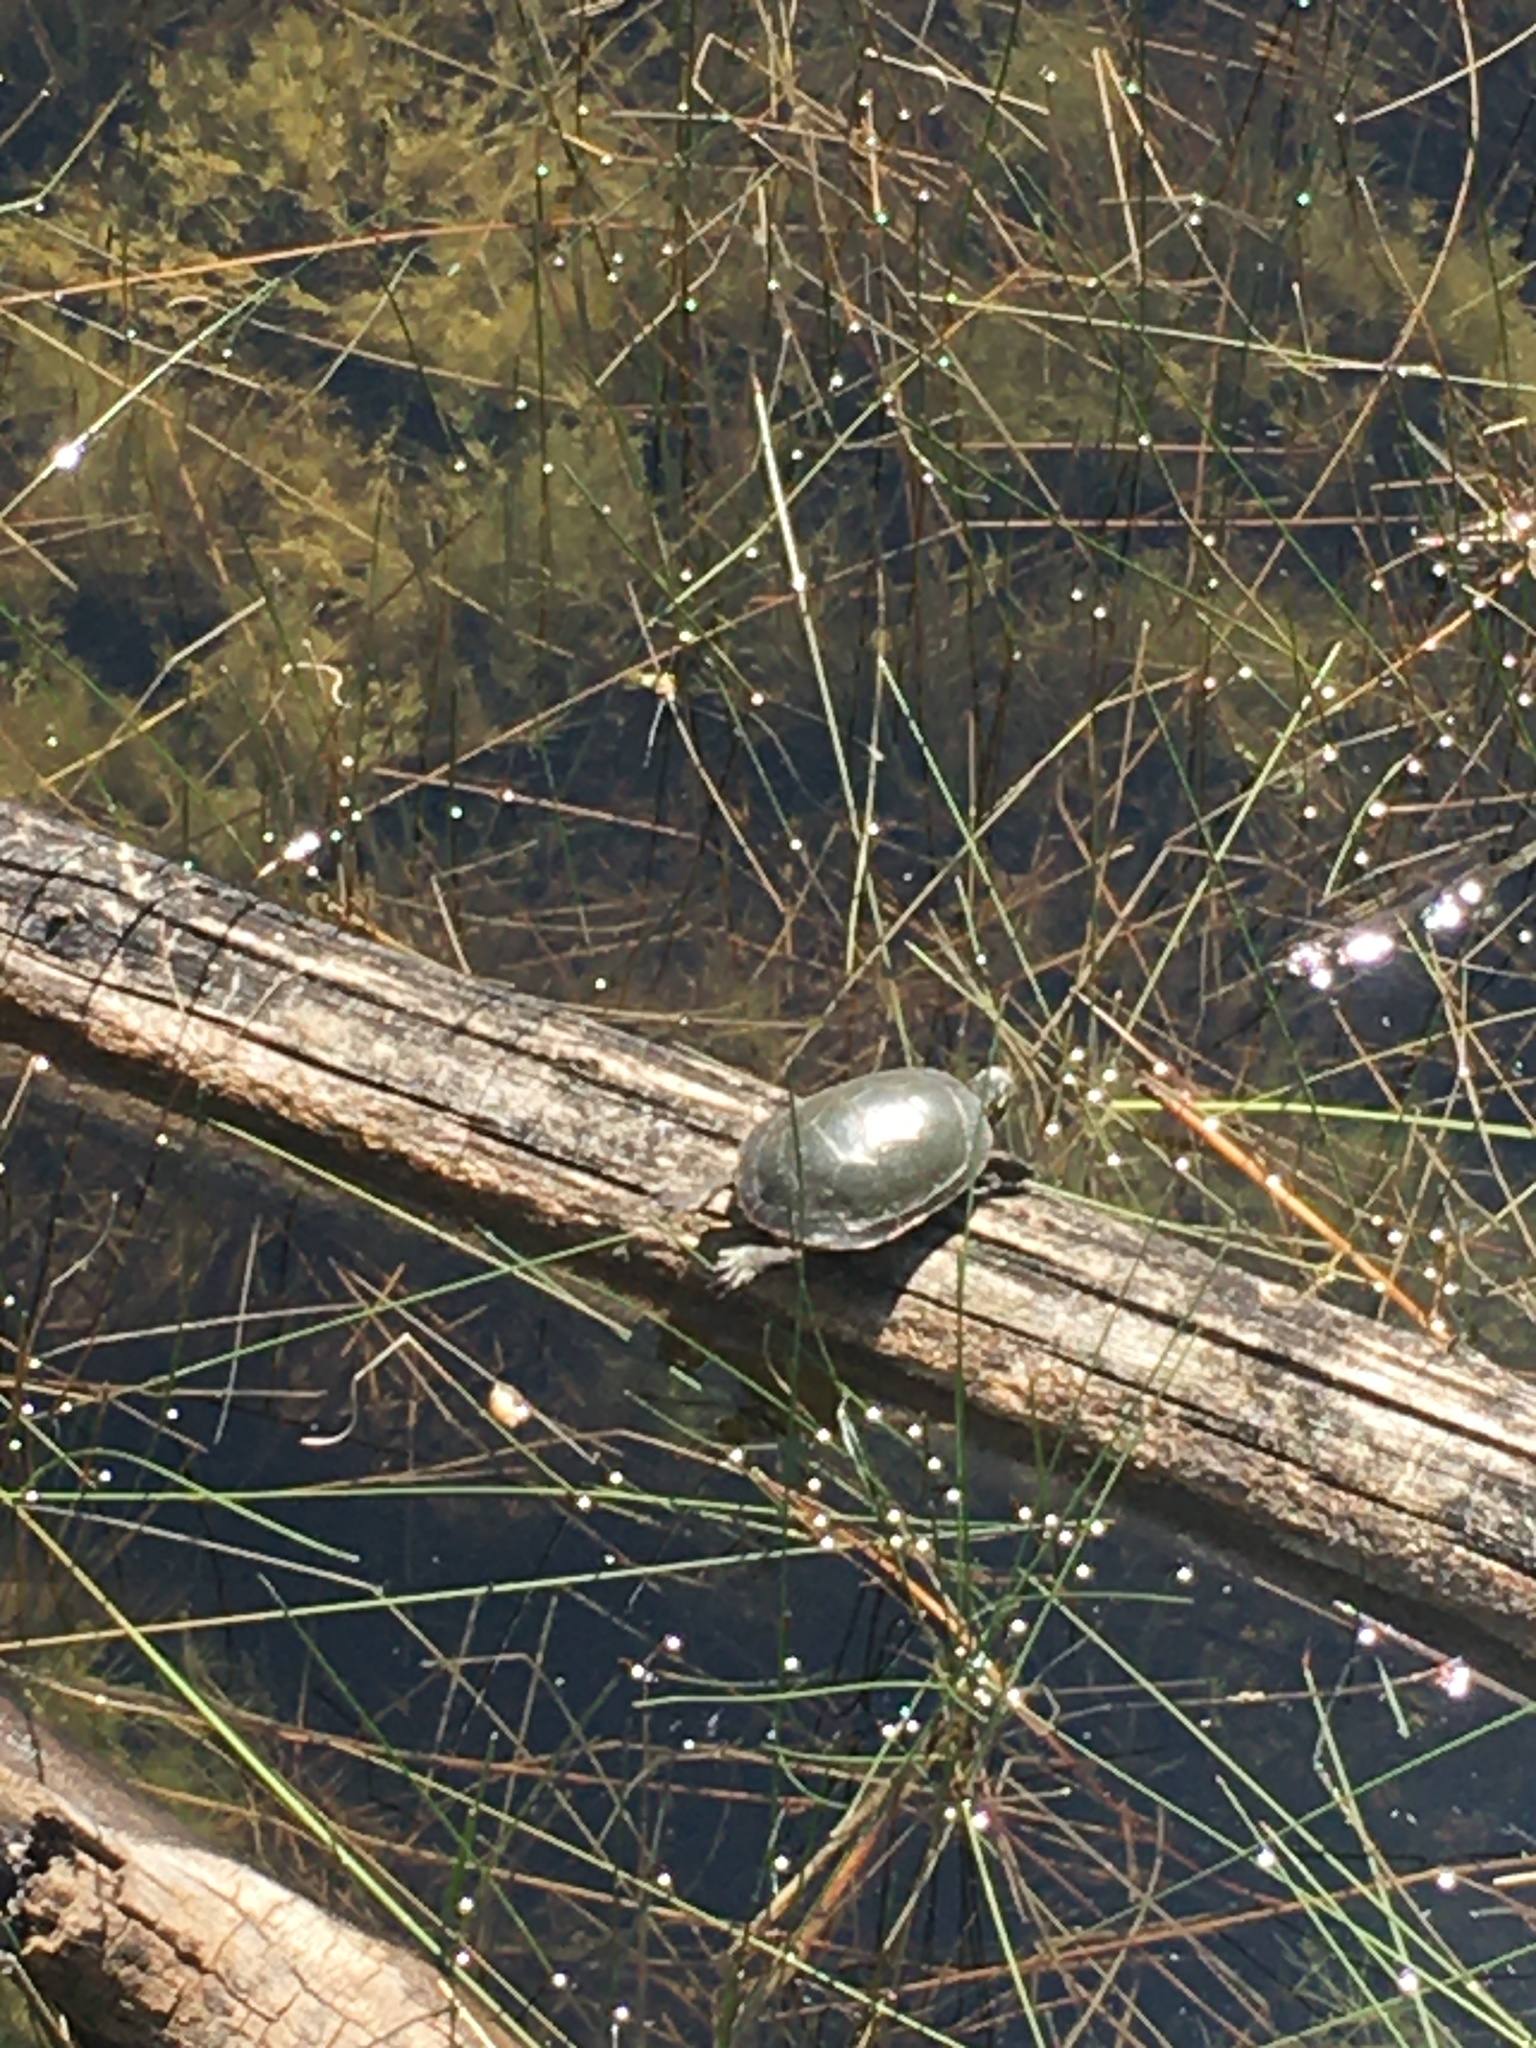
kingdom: Animalia
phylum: Chordata
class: Testudines
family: Emydidae
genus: Chrysemys
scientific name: Chrysemys picta
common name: Painted turtle
